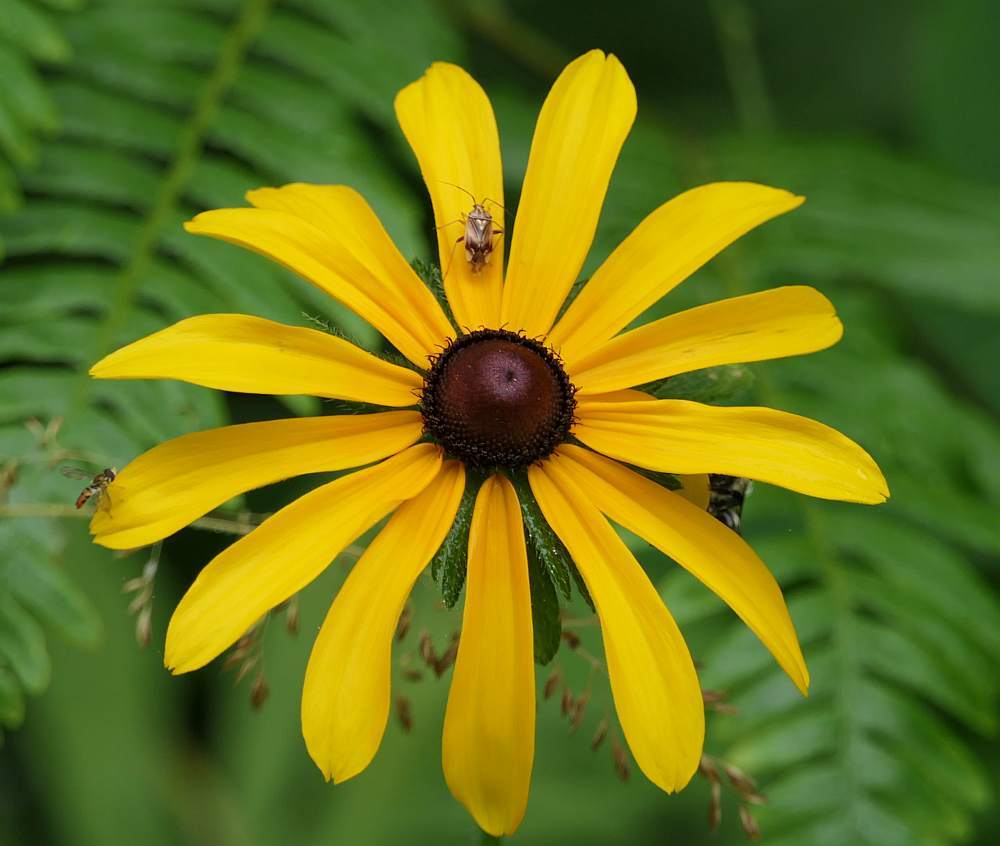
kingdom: Plantae
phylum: Tracheophyta
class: Magnoliopsida
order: Asterales
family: Asteraceae
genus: Rudbeckia
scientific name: Rudbeckia hirta
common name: Black-eyed-susan
